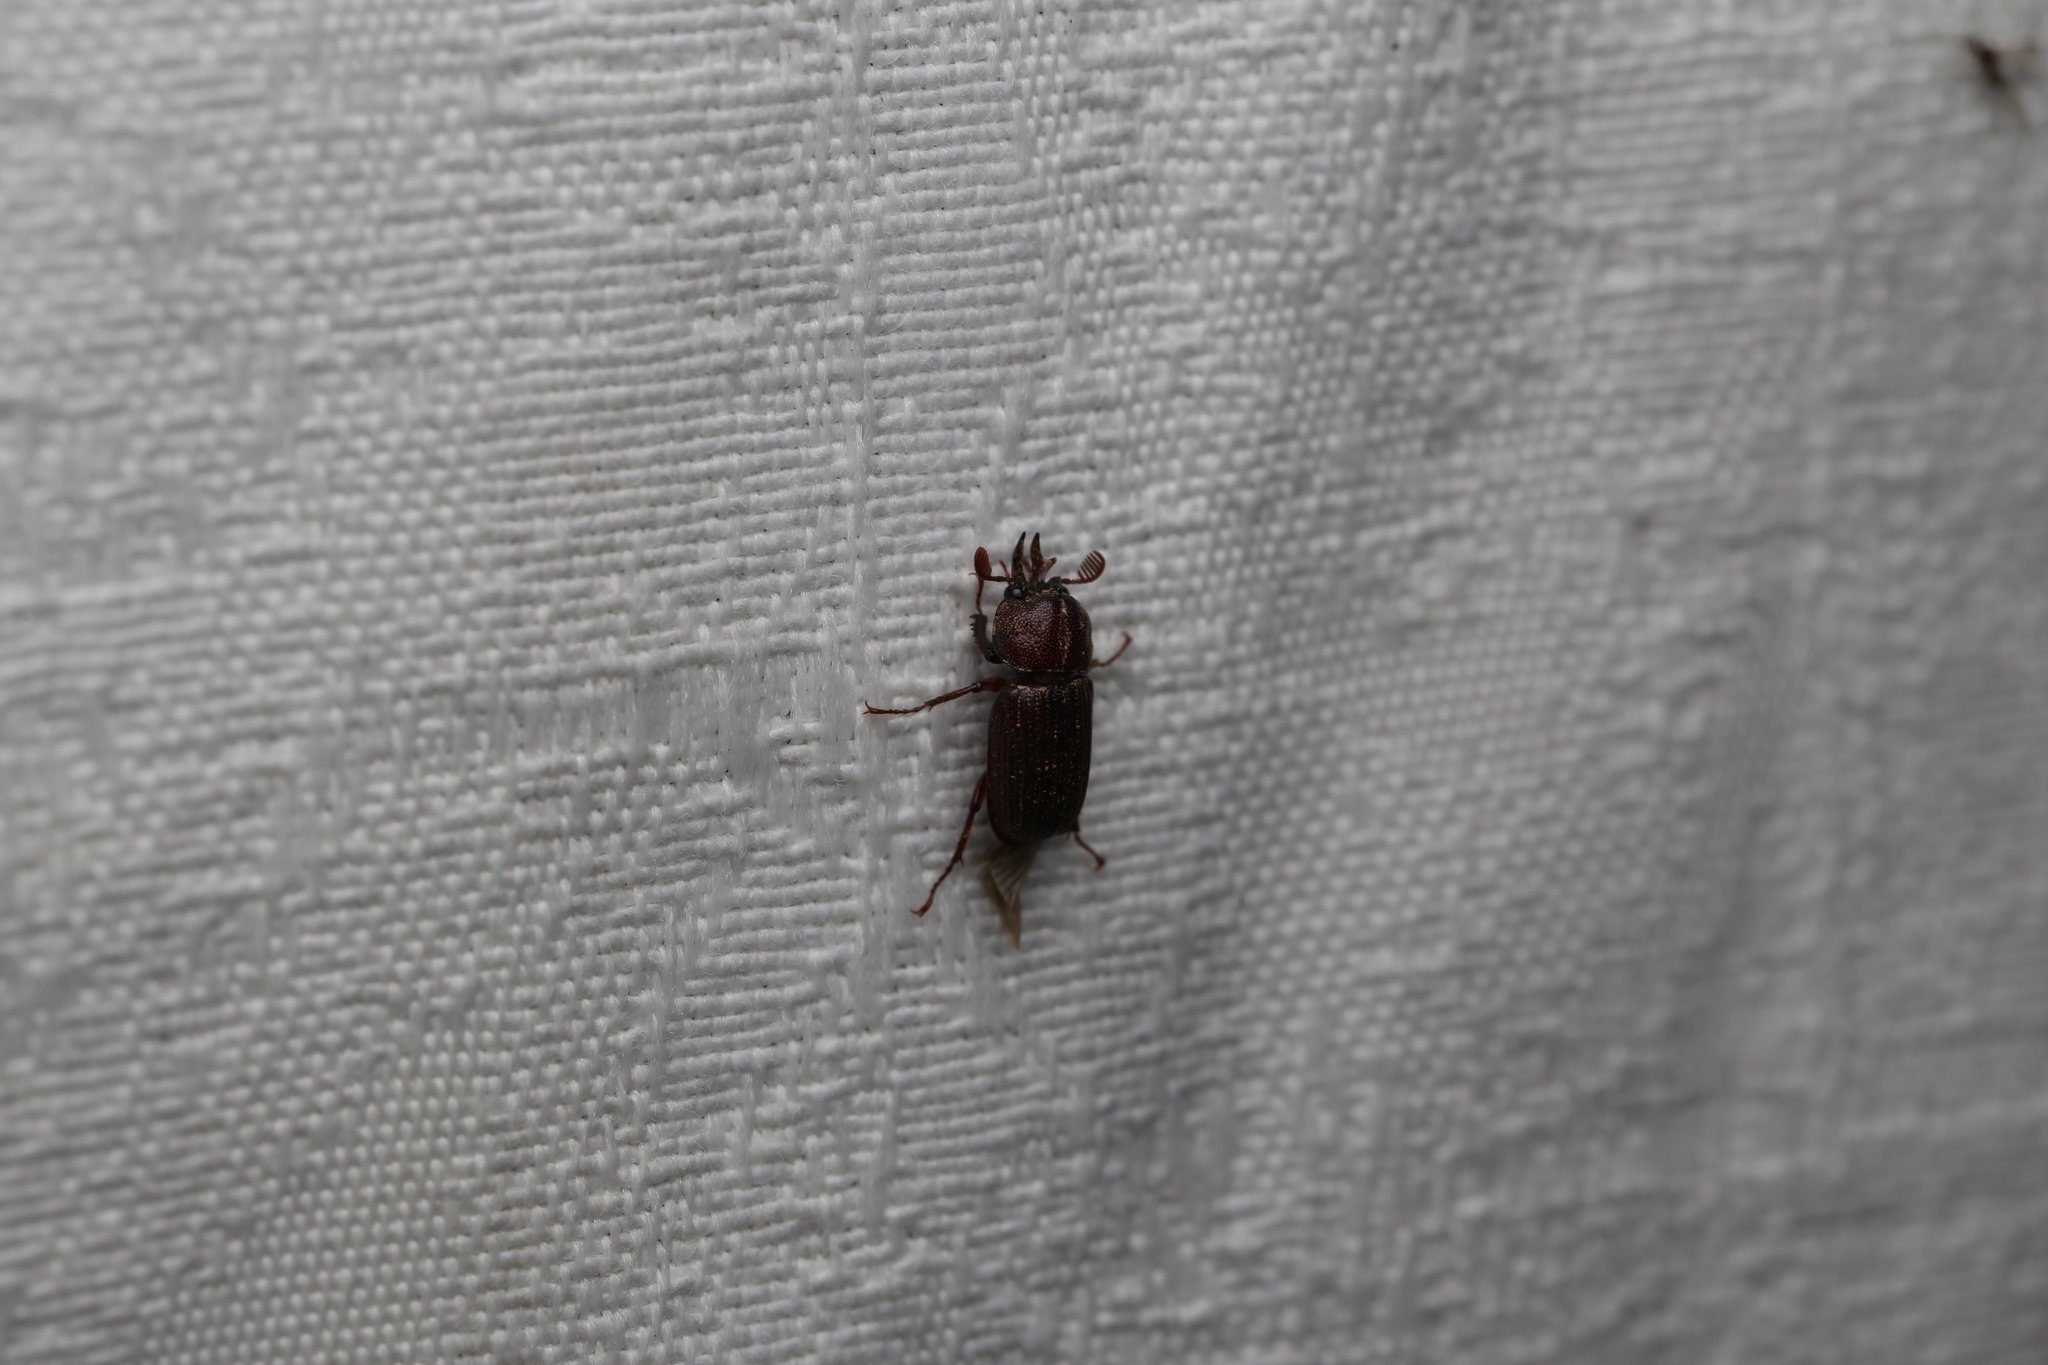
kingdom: Animalia
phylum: Arthropoda
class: Insecta
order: Coleoptera
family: Lucanidae
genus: Syndesus
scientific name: Syndesus cornutus
